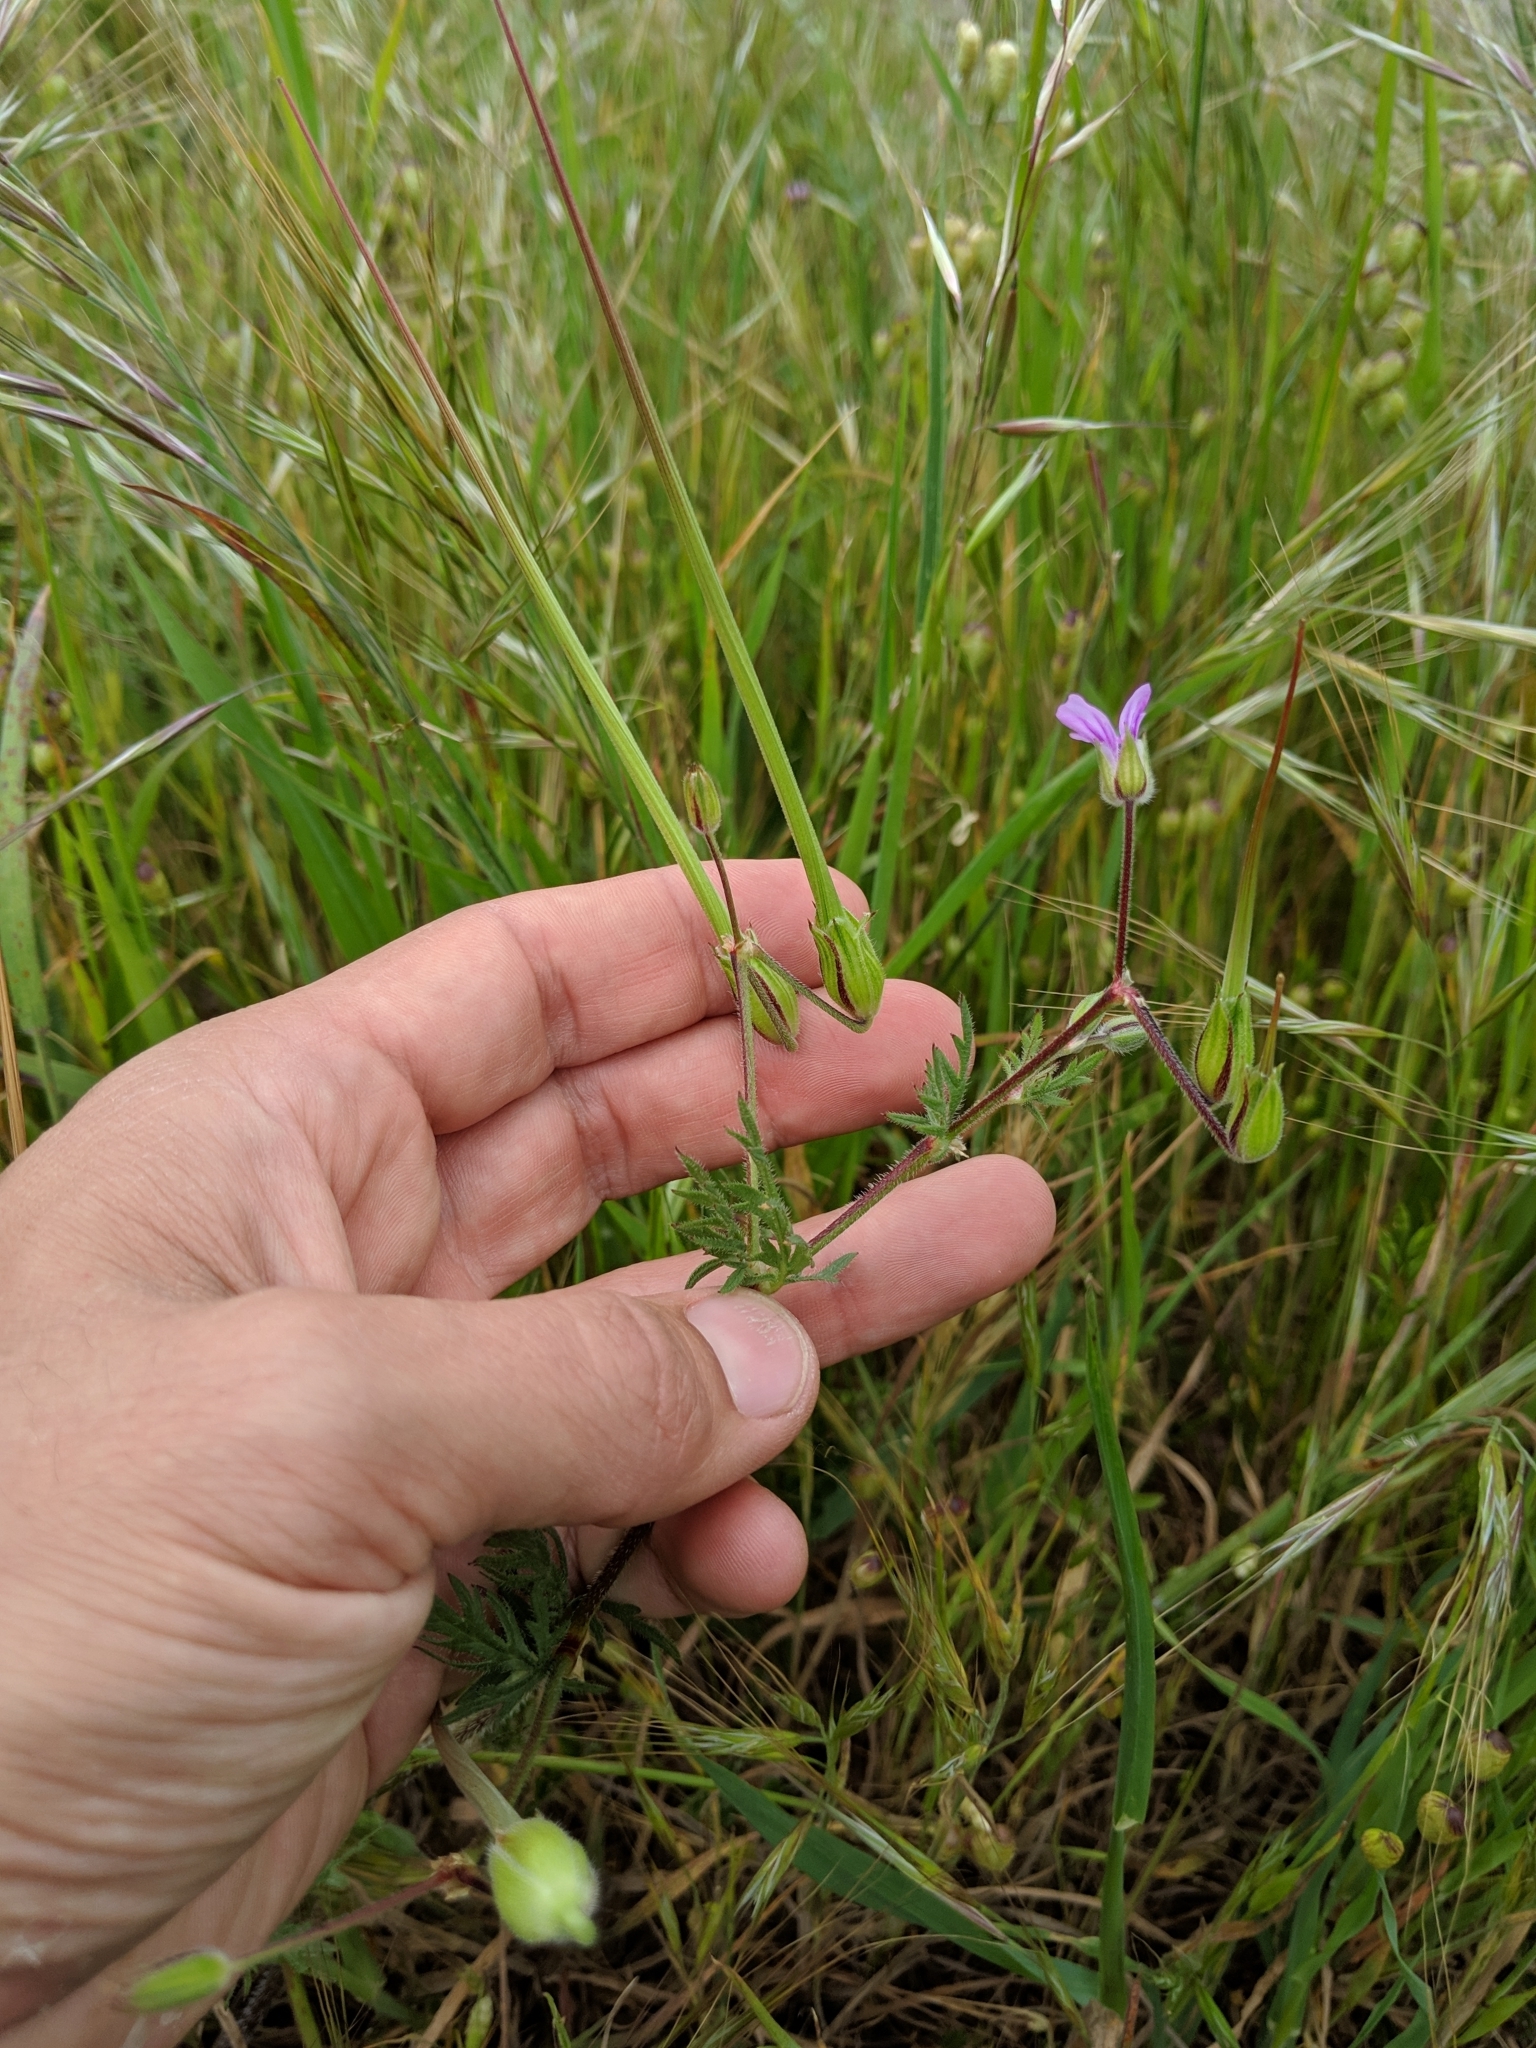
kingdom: Plantae
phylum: Tracheophyta
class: Magnoliopsida
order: Geraniales
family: Geraniaceae
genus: Erodium
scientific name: Erodium botrys
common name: Mediterranean stork's-bill
